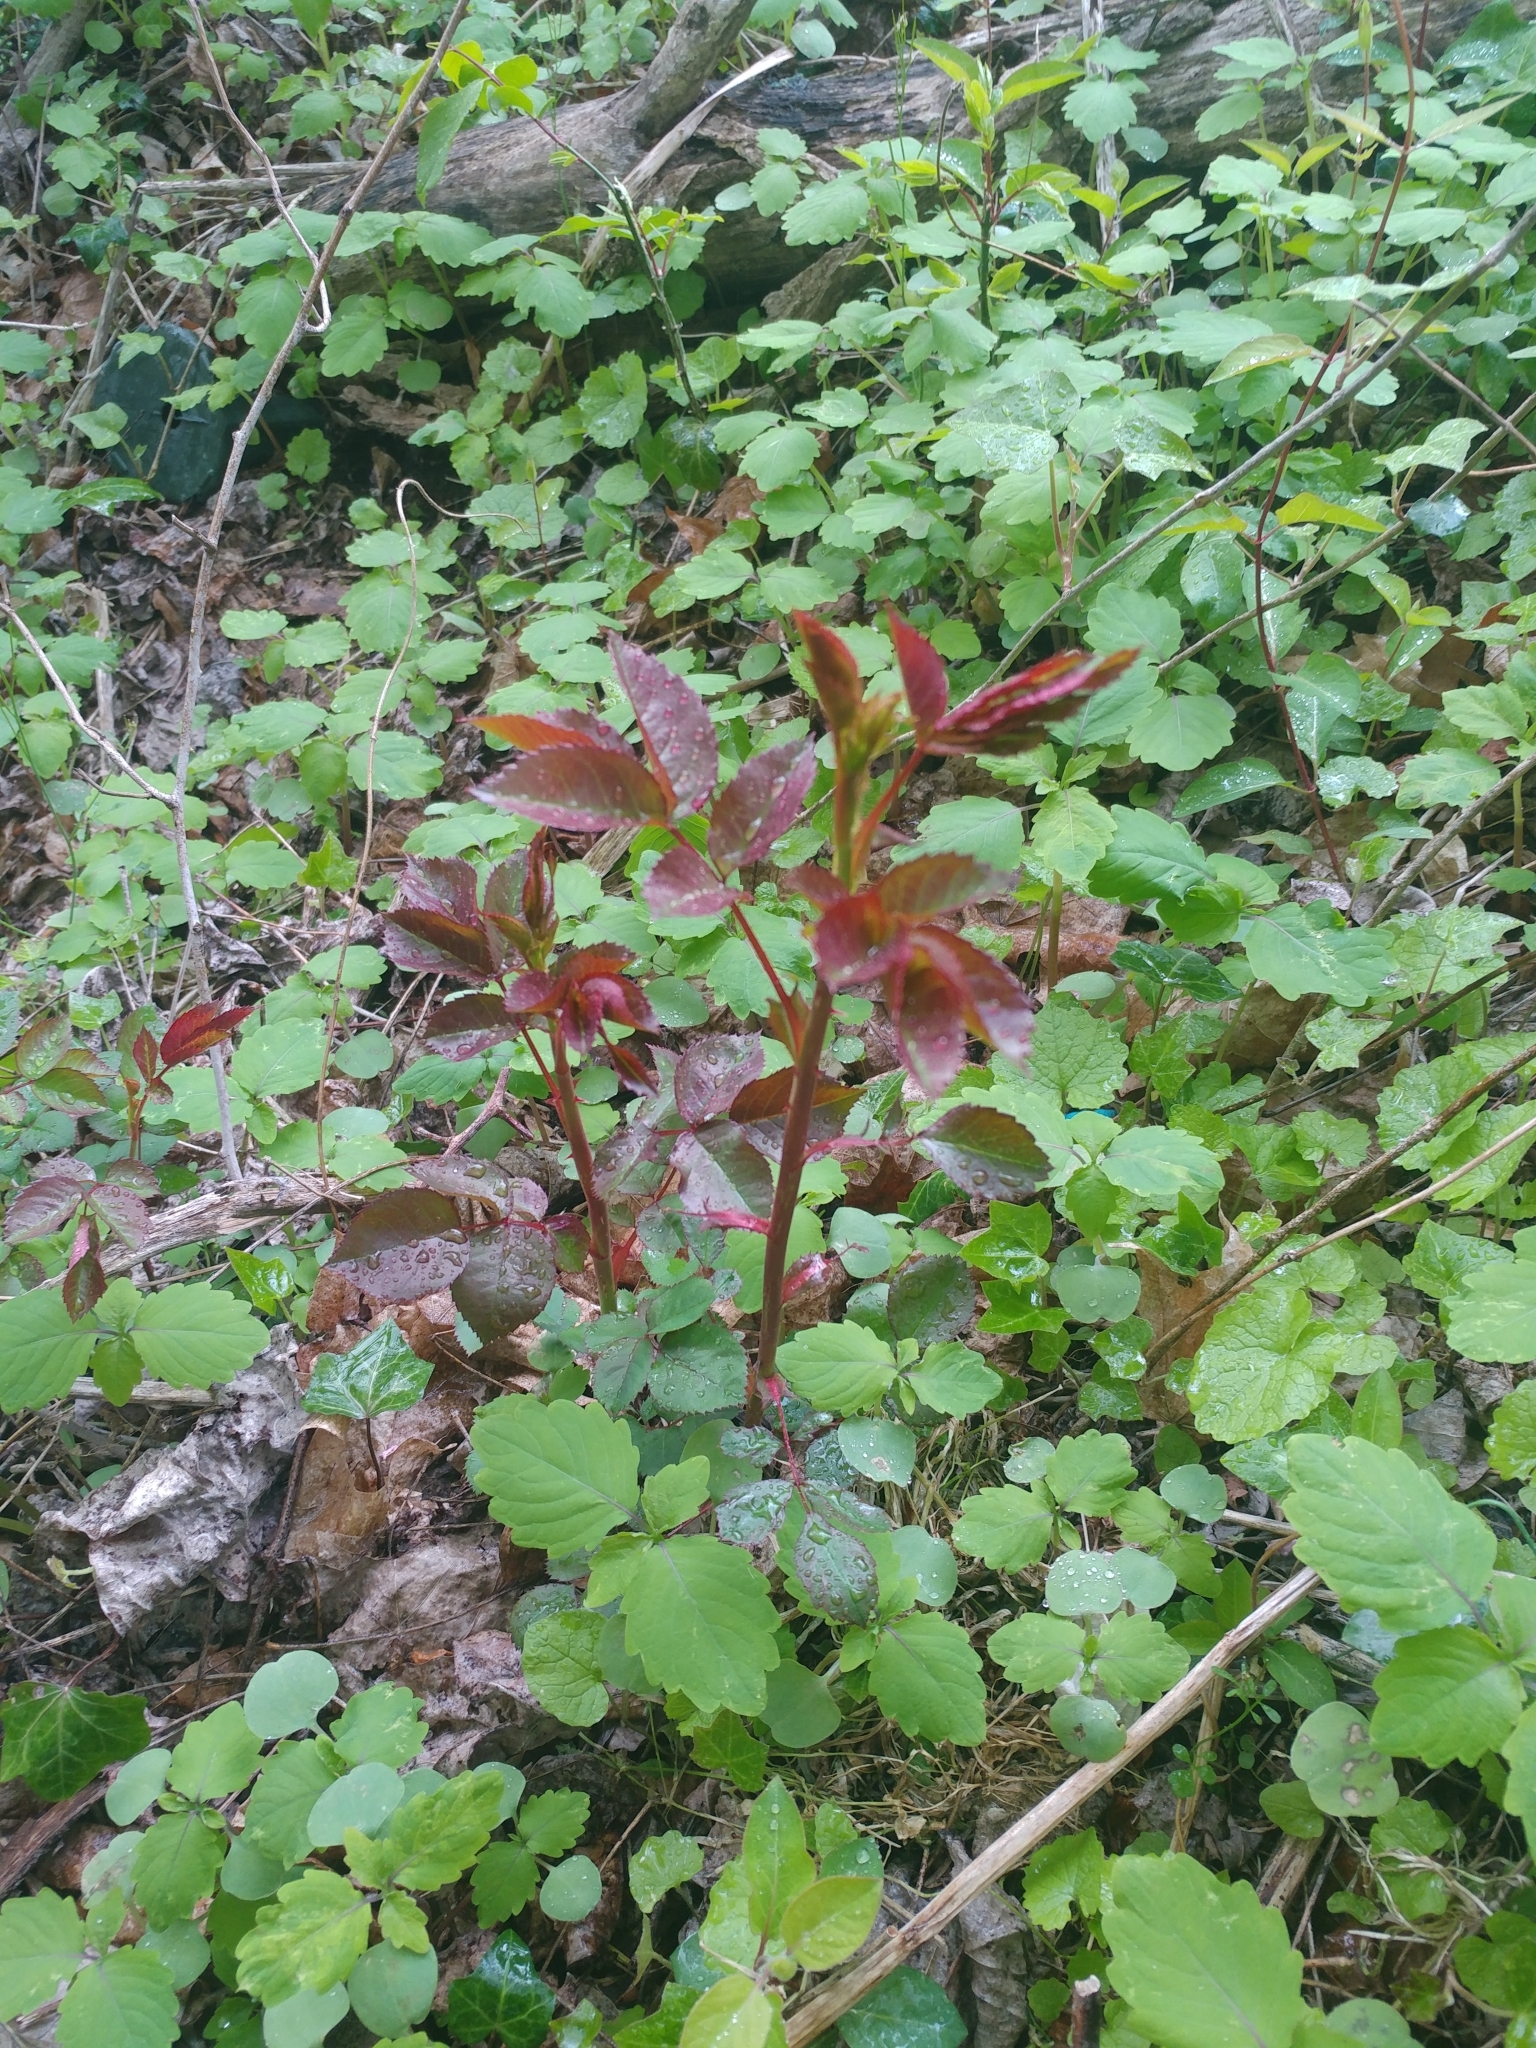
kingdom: Plantae
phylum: Tracheophyta
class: Magnoliopsida
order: Rosales
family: Rosaceae
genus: Rosa
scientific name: Rosa multiflora
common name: Multiflora rose
